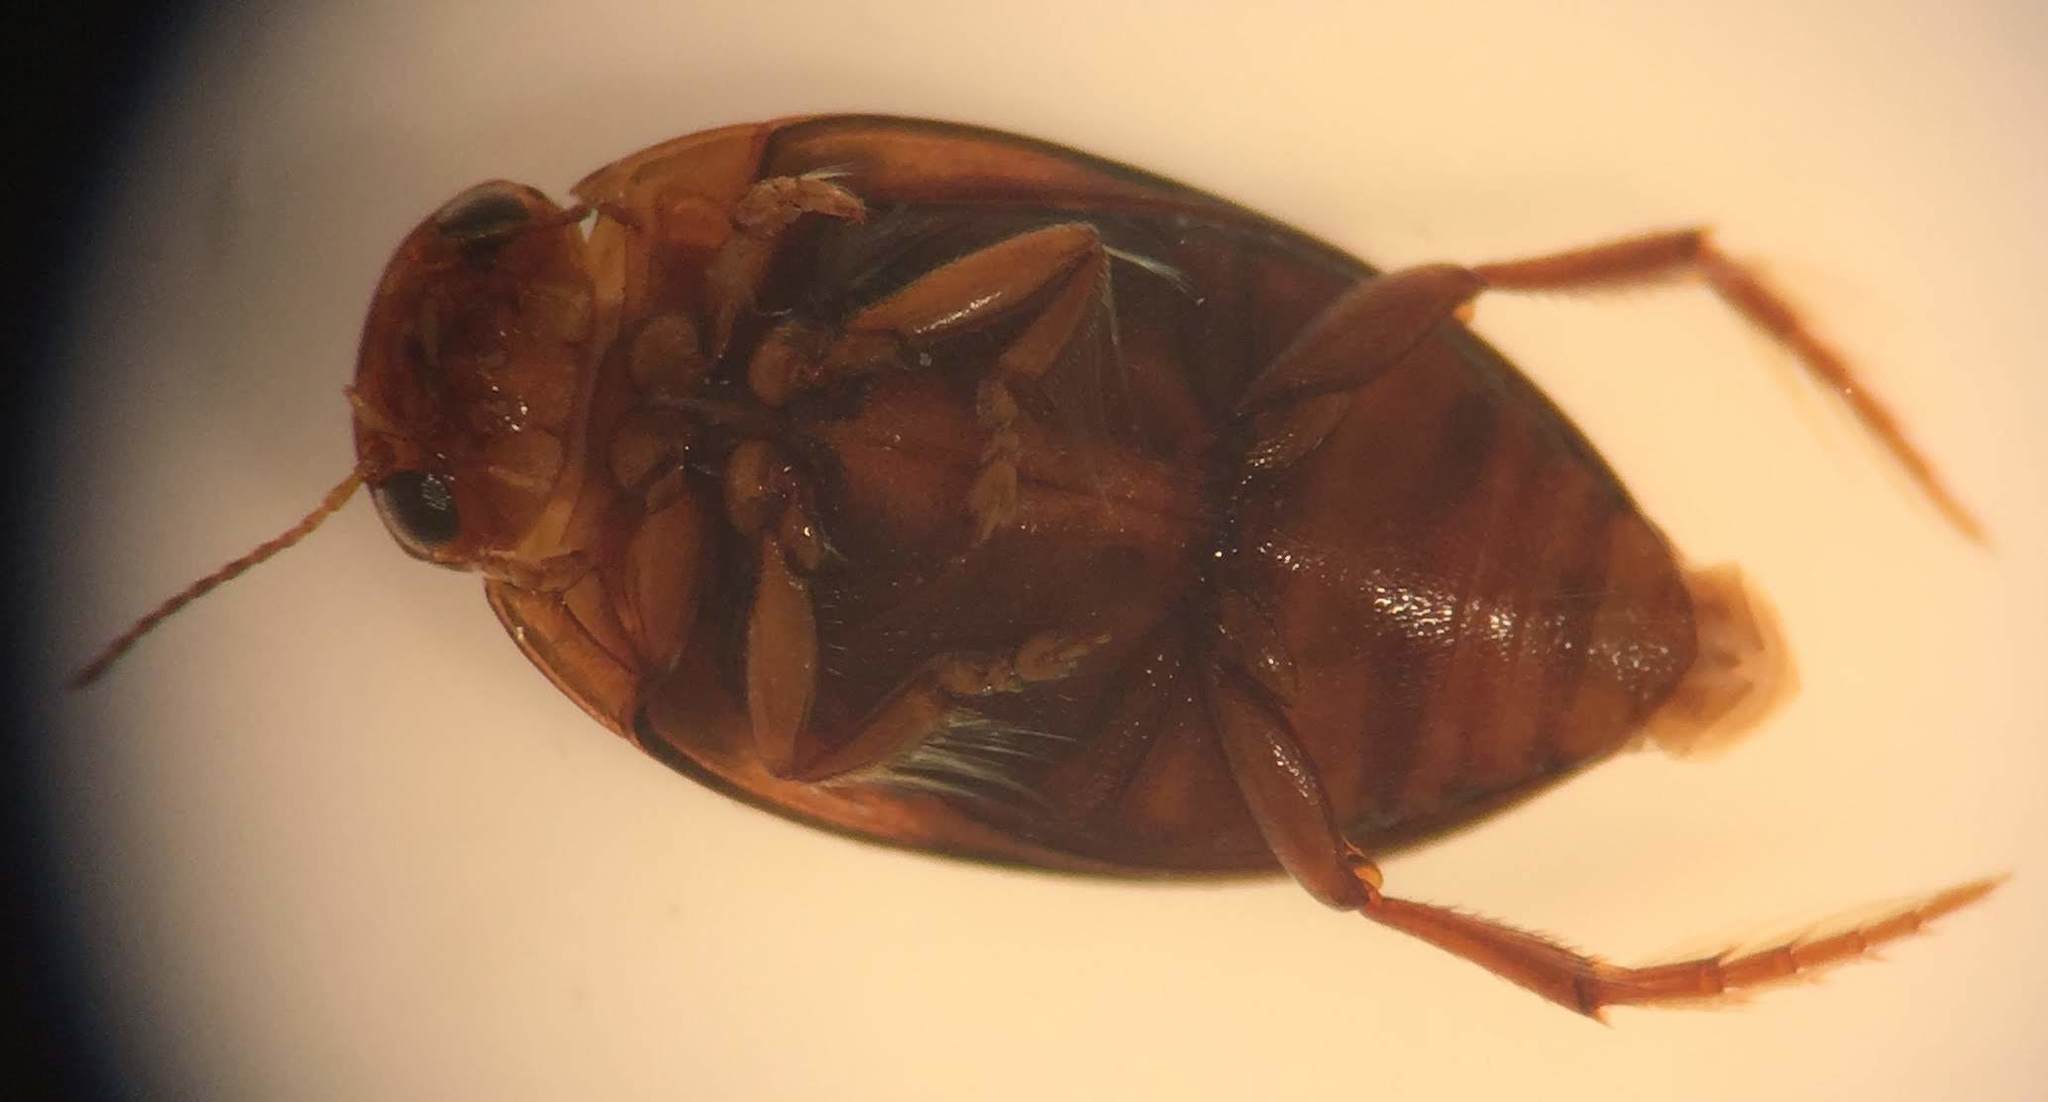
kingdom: Animalia
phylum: Arthropoda
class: Insecta
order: Coleoptera
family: Dytiscidae
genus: Neoporus
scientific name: Neoporus undulatus
